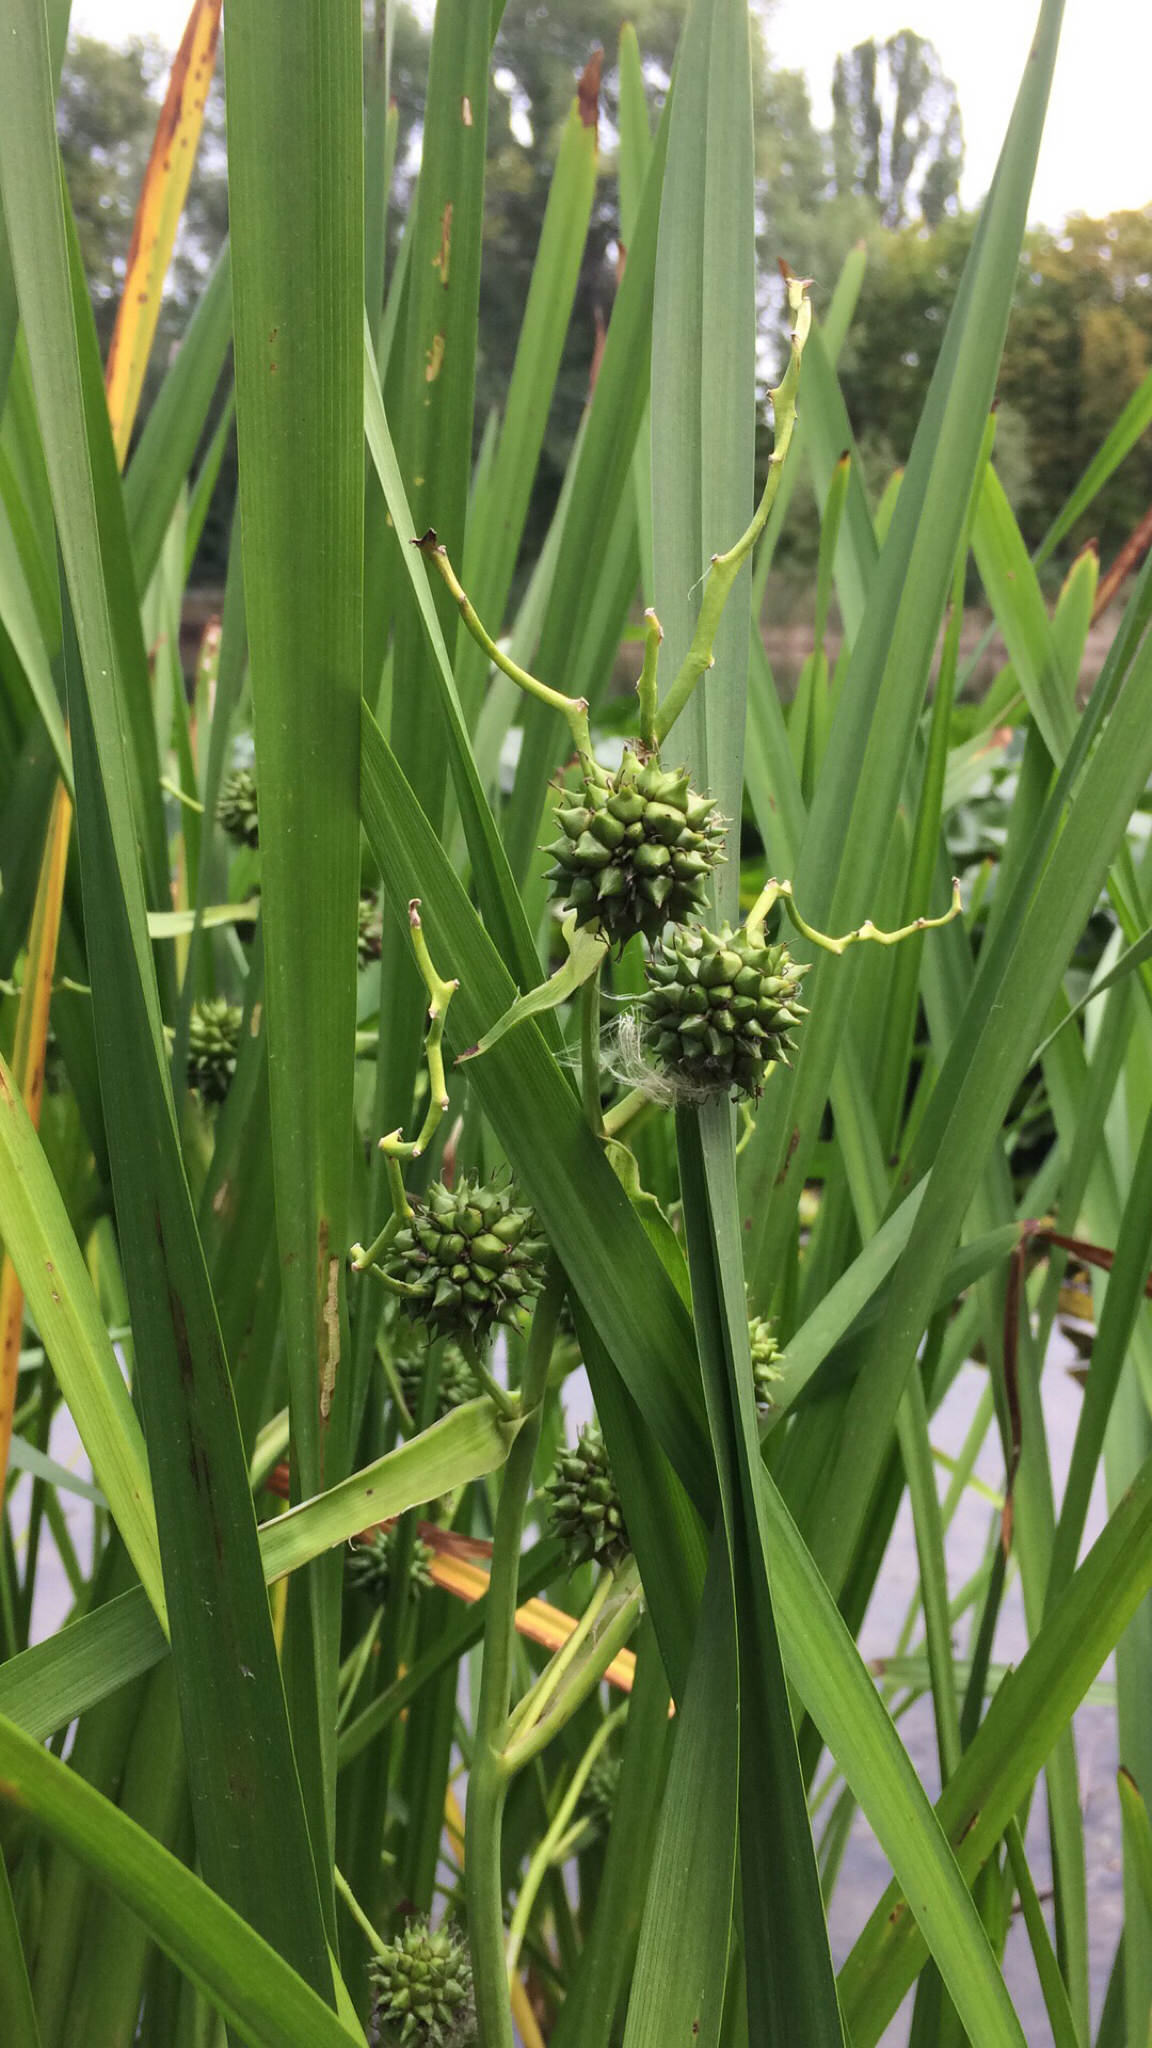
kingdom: Plantae
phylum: Tracheophyta
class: Liliopsida
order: Poales
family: Typhaceae
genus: Sparganium
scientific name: Sparganium erectum
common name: Branched bur-reed
